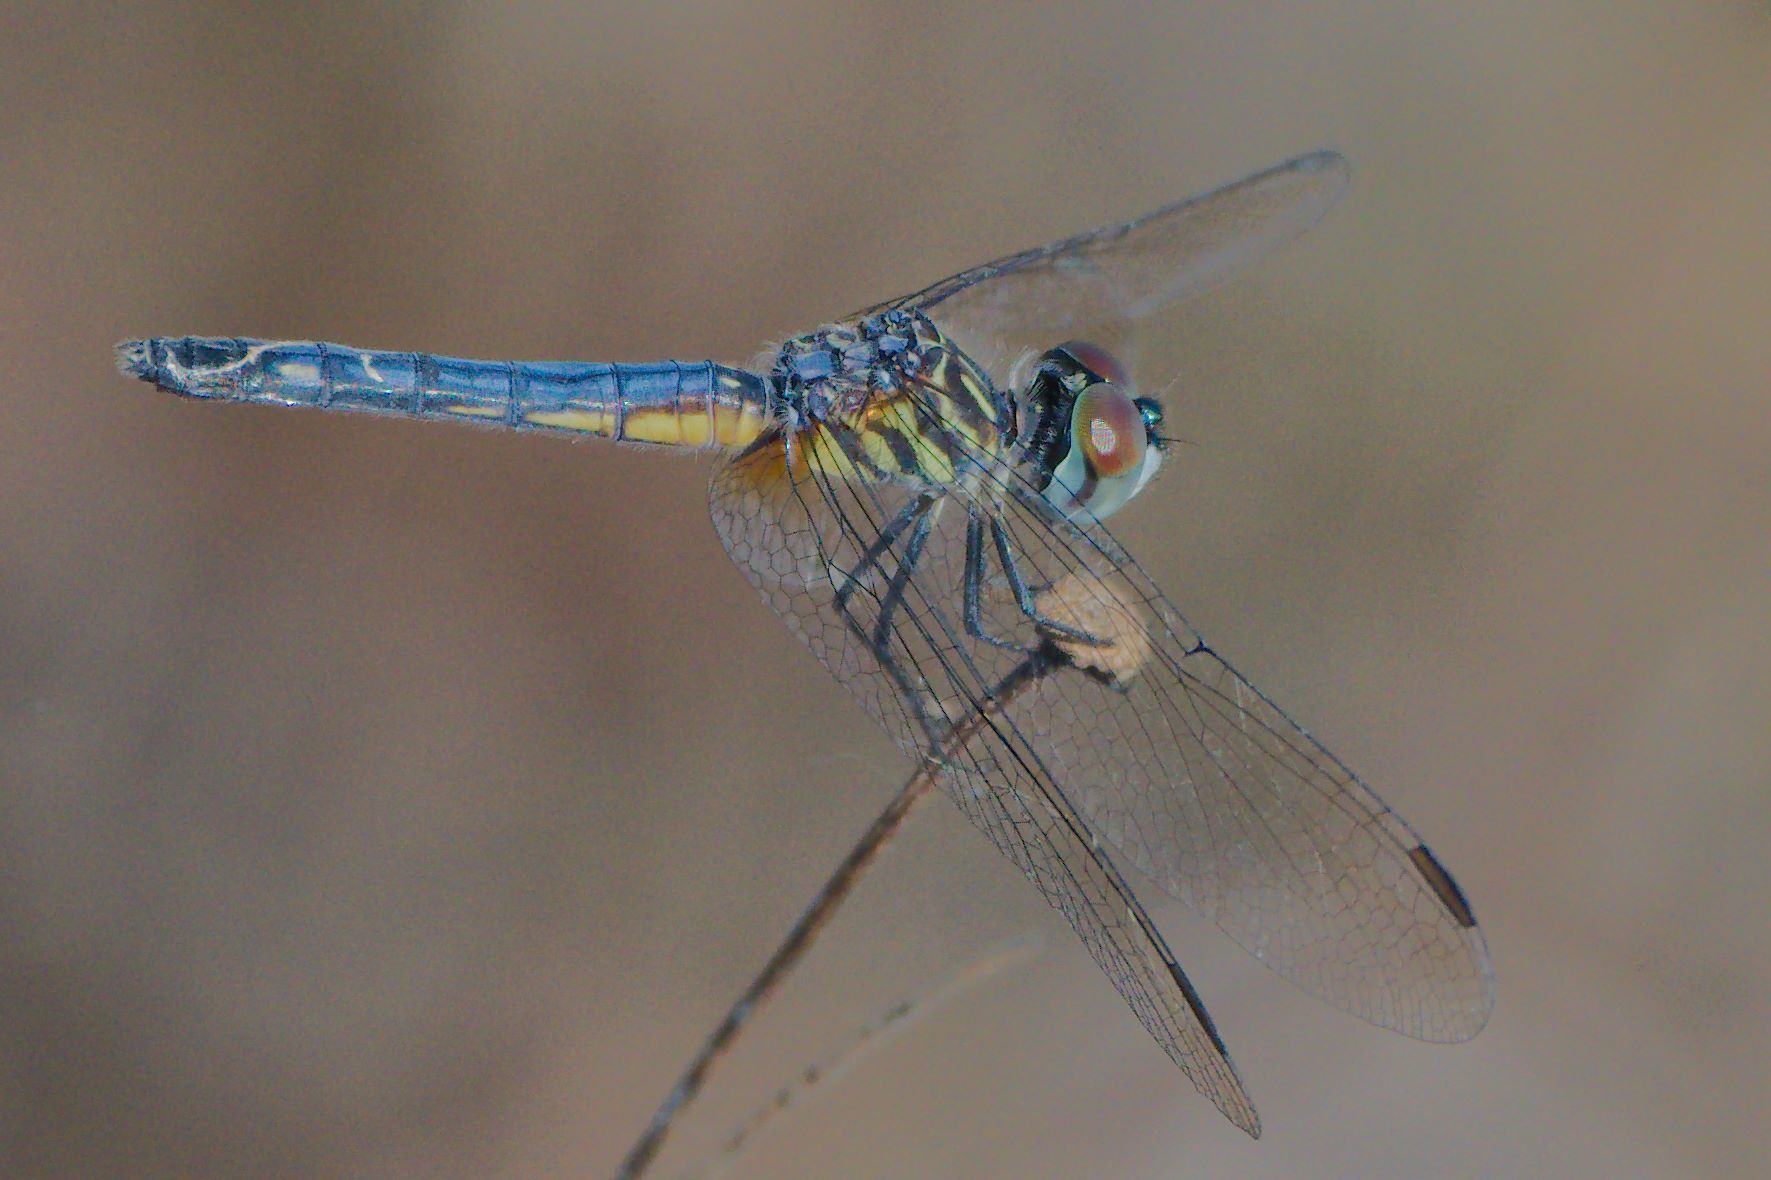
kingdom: Animalia
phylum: Arthropoda
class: Insecta
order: Odonata
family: Libellulidae
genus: Pachydiplax
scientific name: Pachydiplax longipennis
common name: Blue dasher
